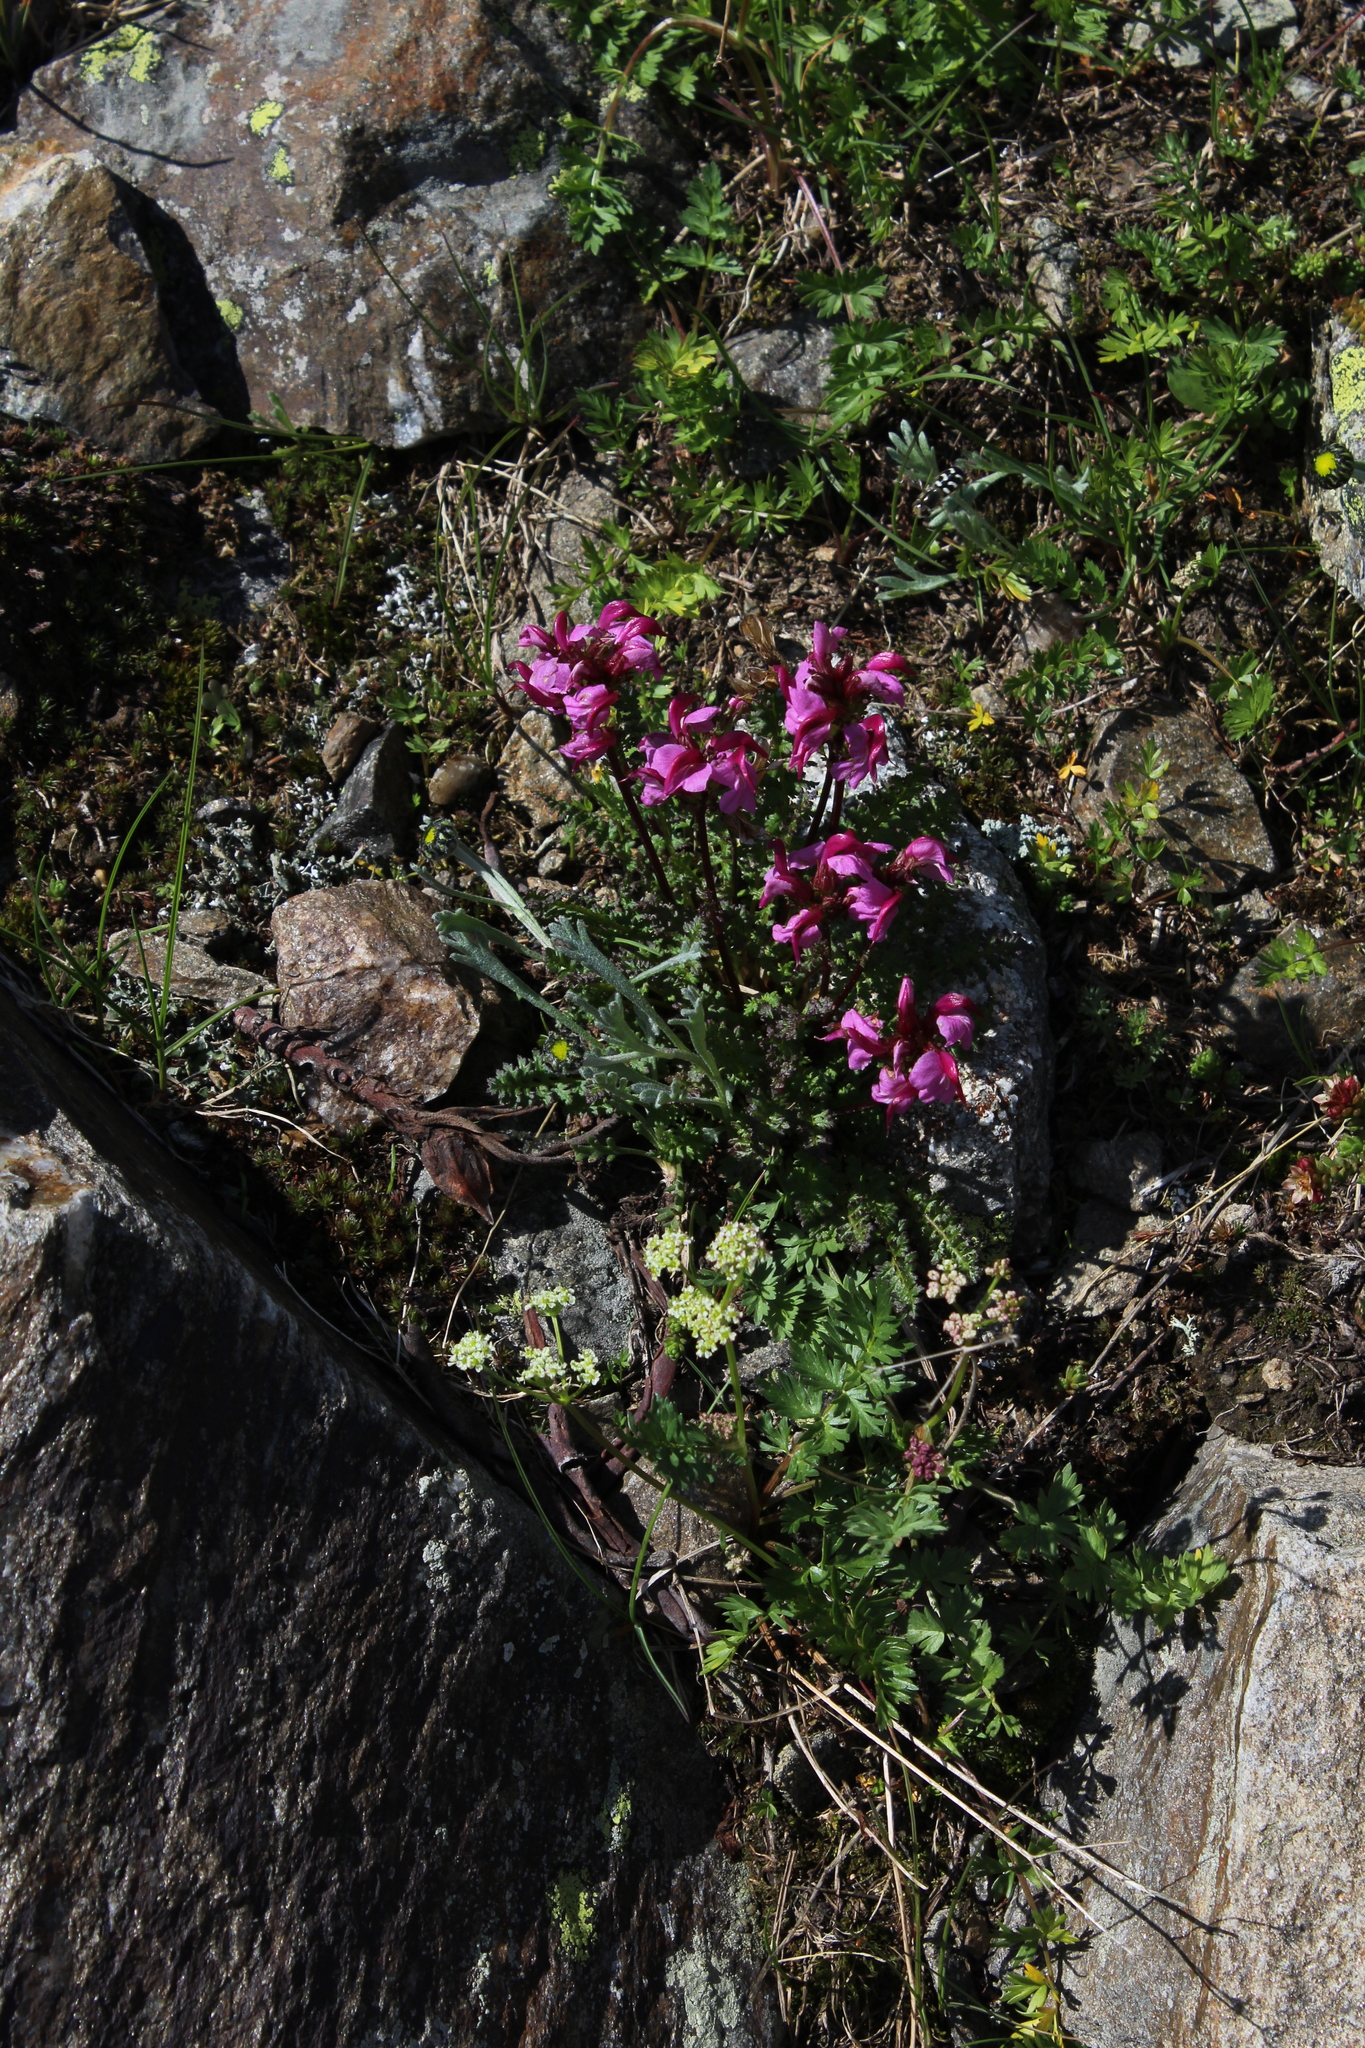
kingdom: Plantae
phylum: Tracheophyta
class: Magnoliopsida
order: Lamiales
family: Orobanchaceae
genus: Pedicularis
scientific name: Pedicularis nordmanniana
